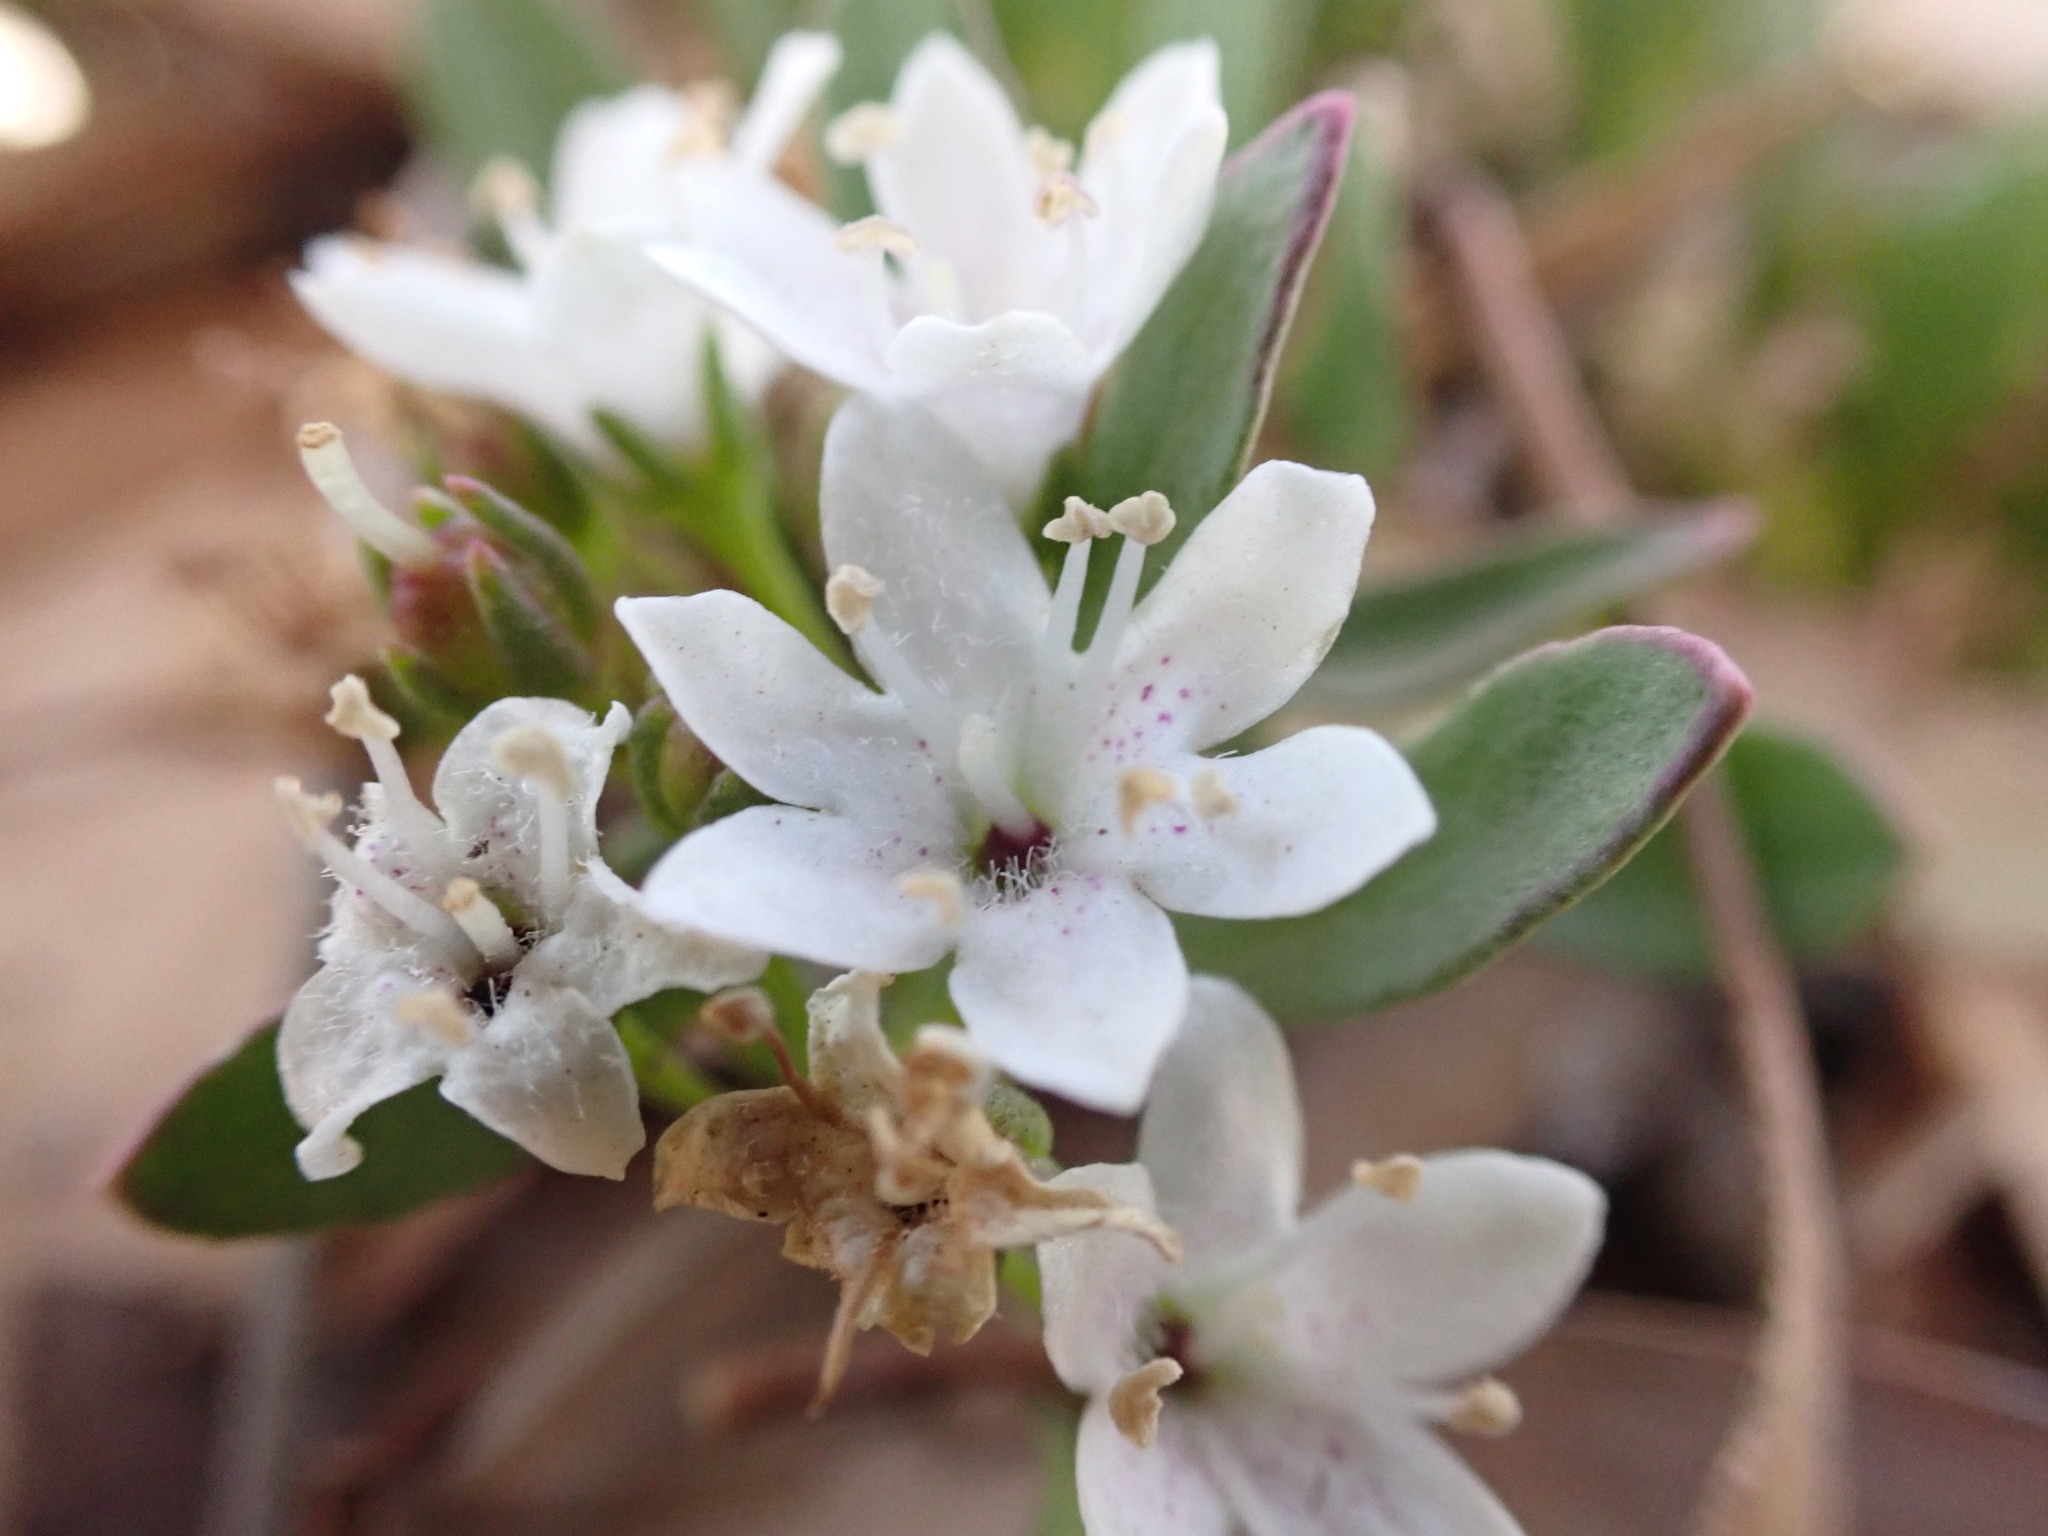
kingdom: Plantae
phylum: Tracheophyta
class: Magnoliopsida
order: Lamiales
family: Scrophulariaceae
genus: Myoporum
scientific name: Myoporum parvifolium
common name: Dwarf native-myrtle
